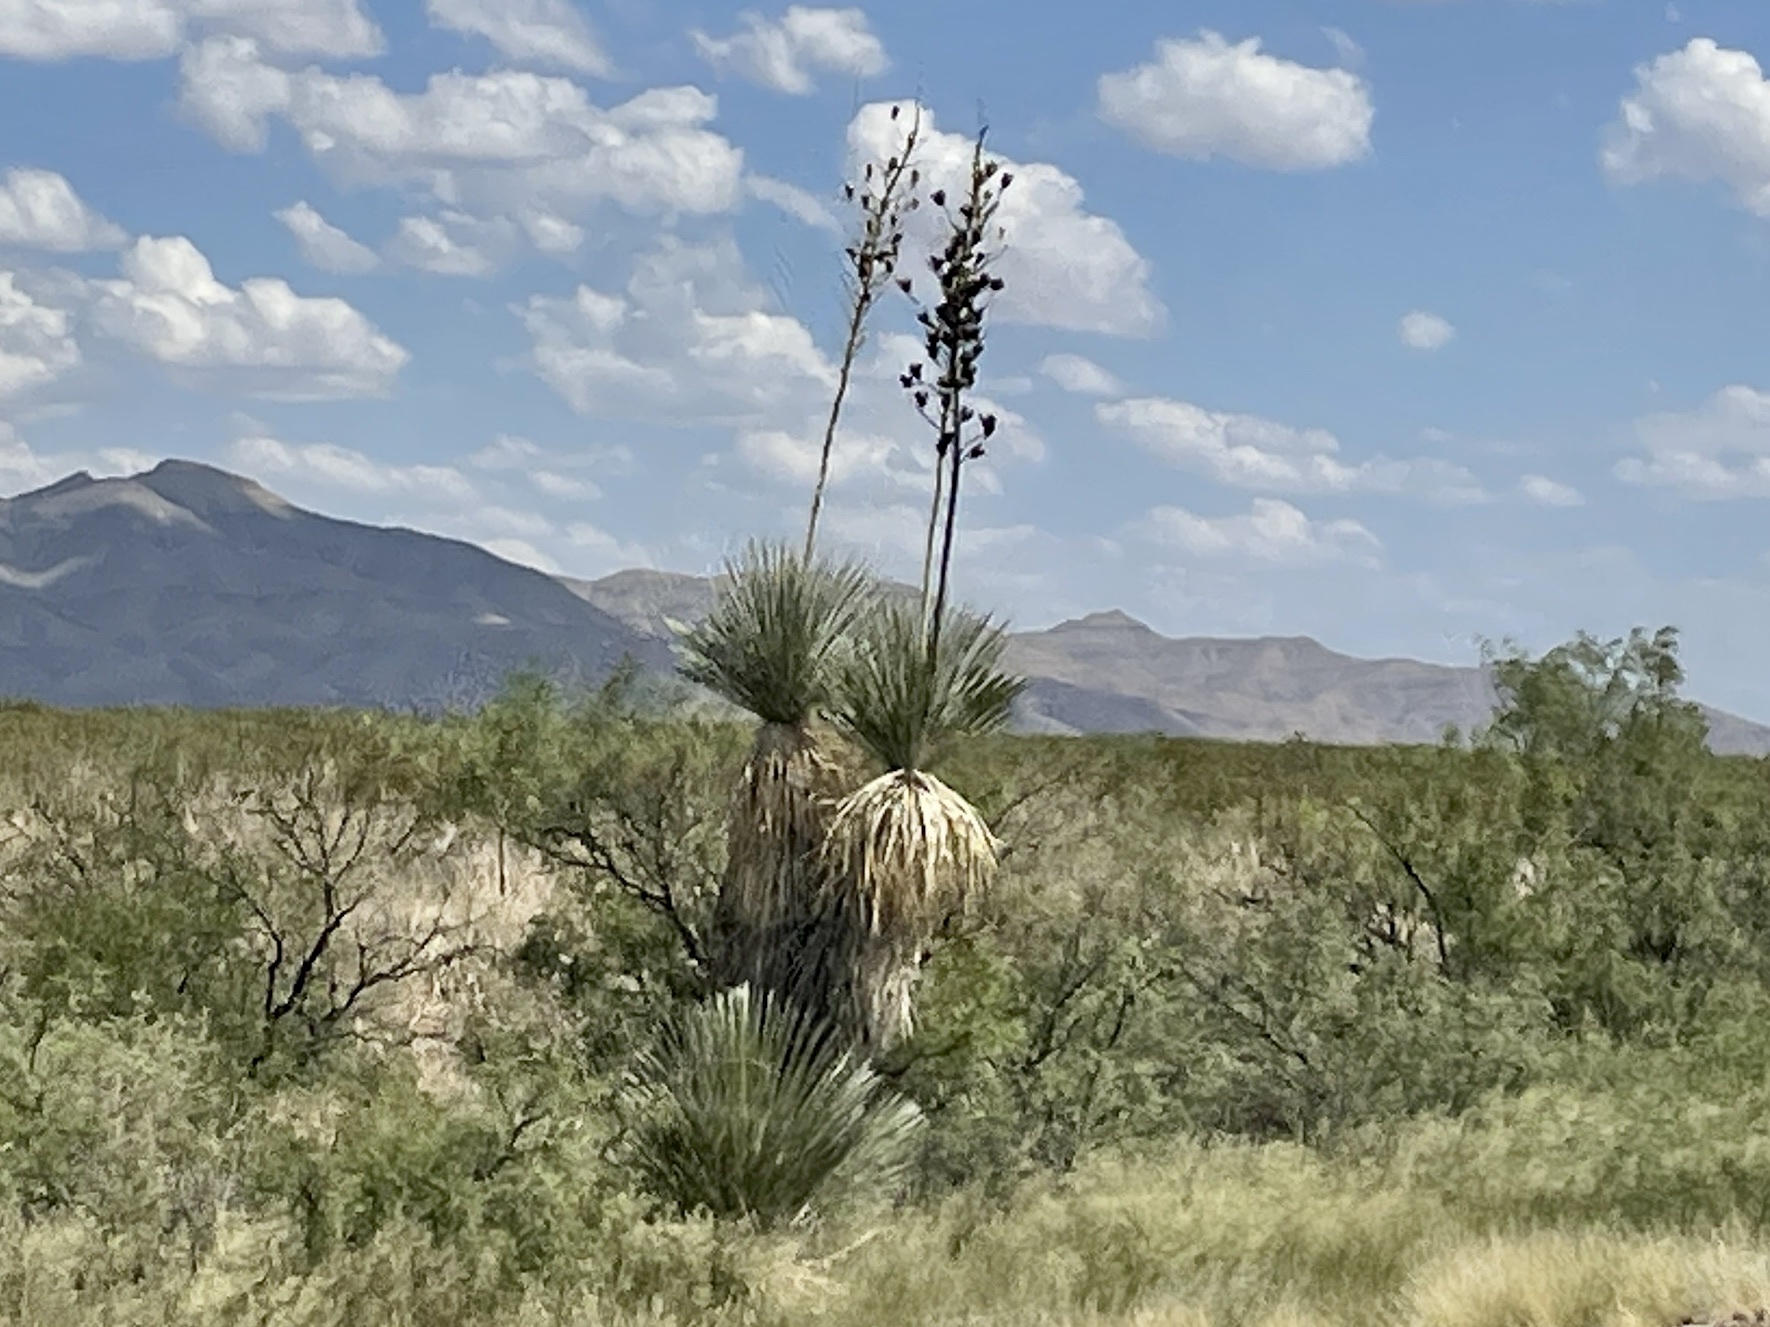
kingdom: Plantae
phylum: Tracheophyta
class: Liliopsida
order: Asparagales
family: Asparagaceae
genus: Yucca
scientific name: Yucca elata
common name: Palmella
